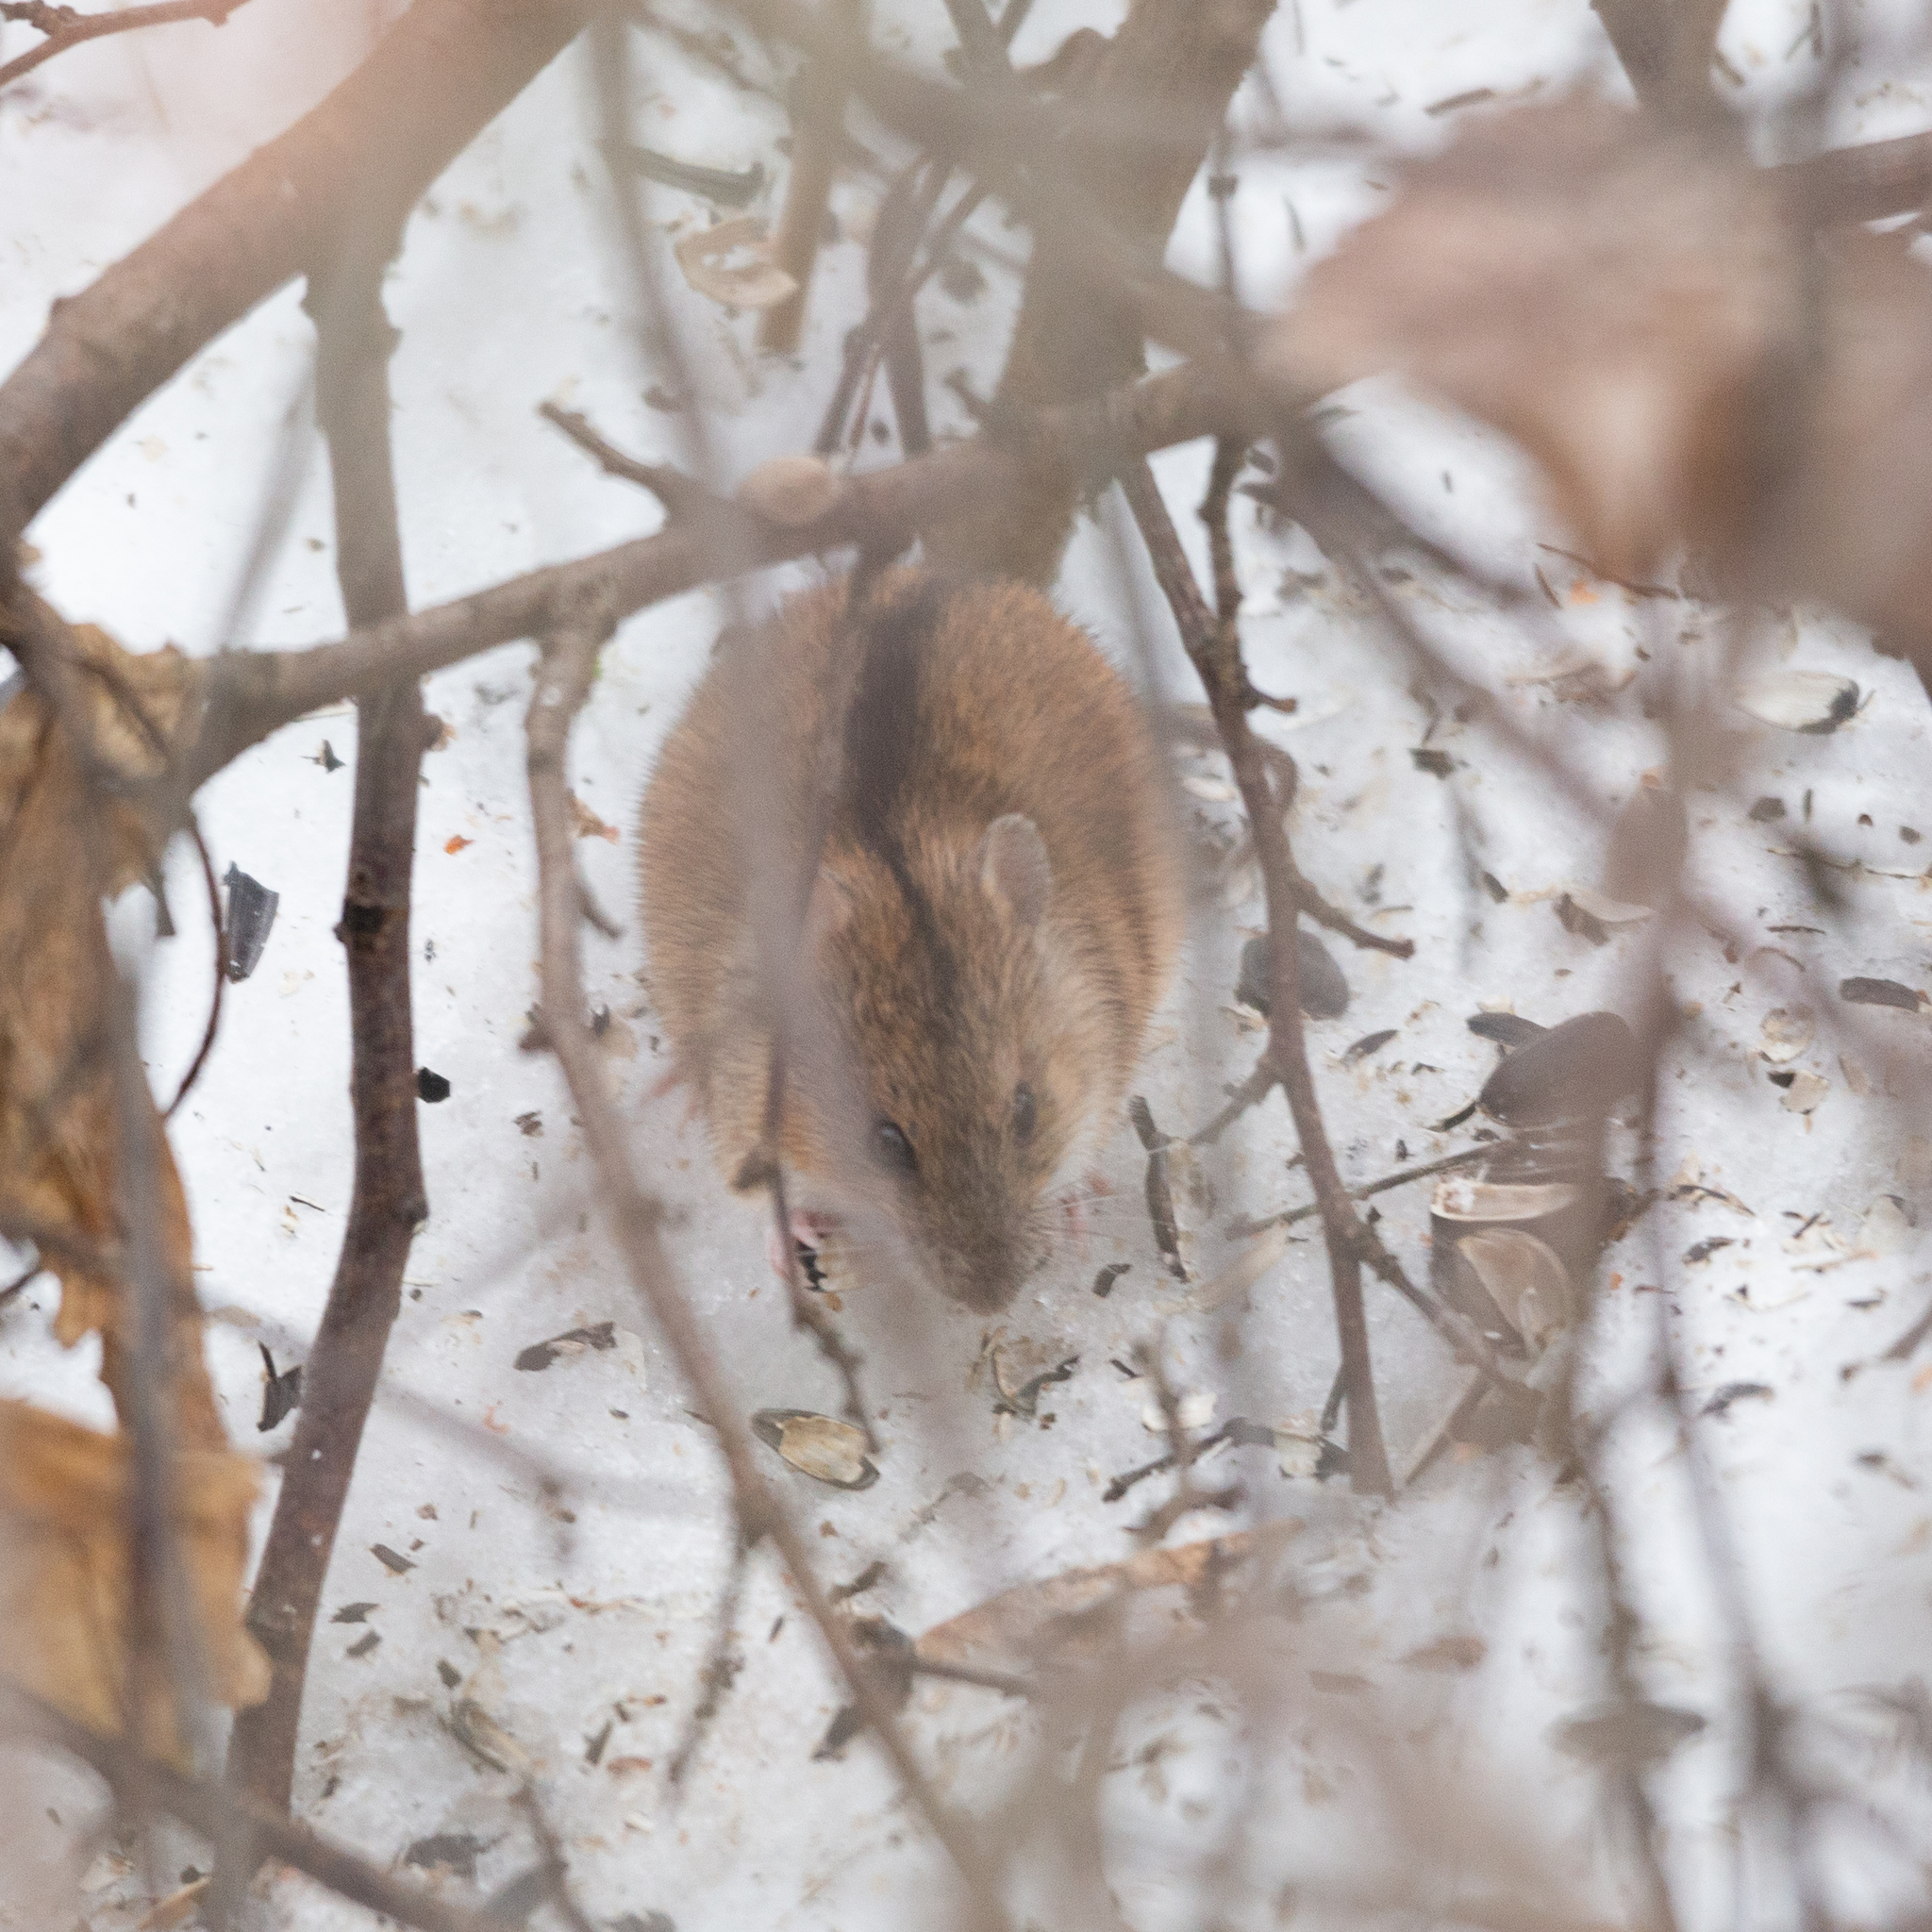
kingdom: Animalia
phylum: Chordata
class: Mammalia
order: Rodentia
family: Muridae
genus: Apodemus
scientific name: Apodemus agrarius
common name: Striped field mouse
